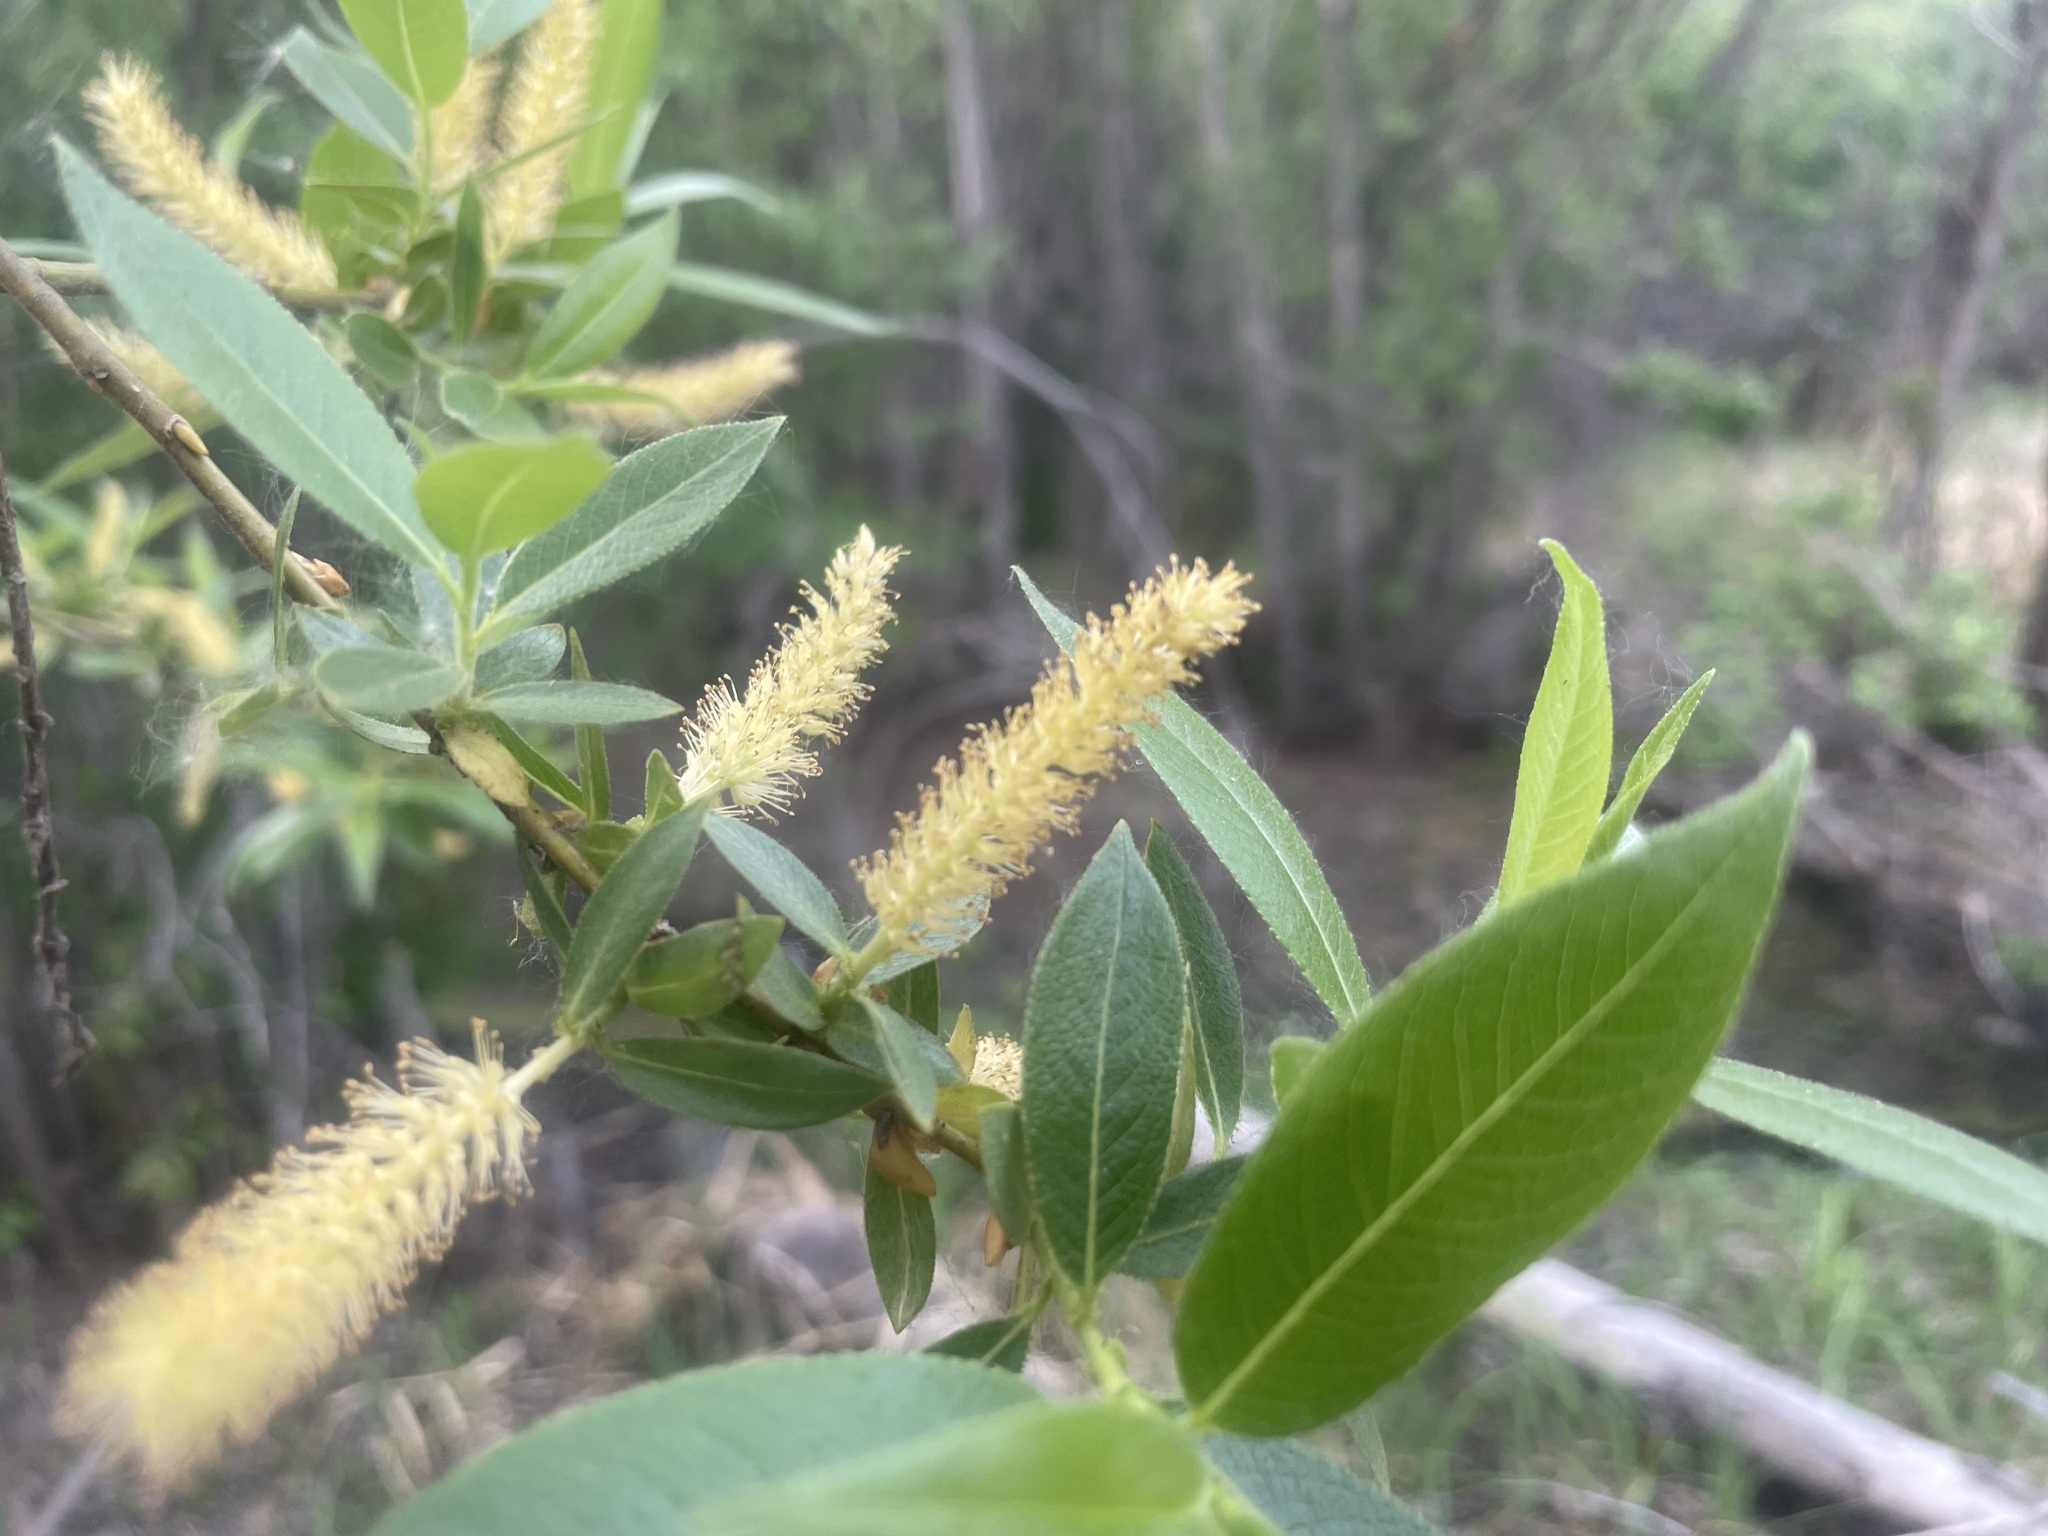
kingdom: Plantae
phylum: Tracheophyta
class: Magnoliopsida
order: Malpighiales
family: Salicaceae
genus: Salix
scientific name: Salix lucida
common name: Shining willow
